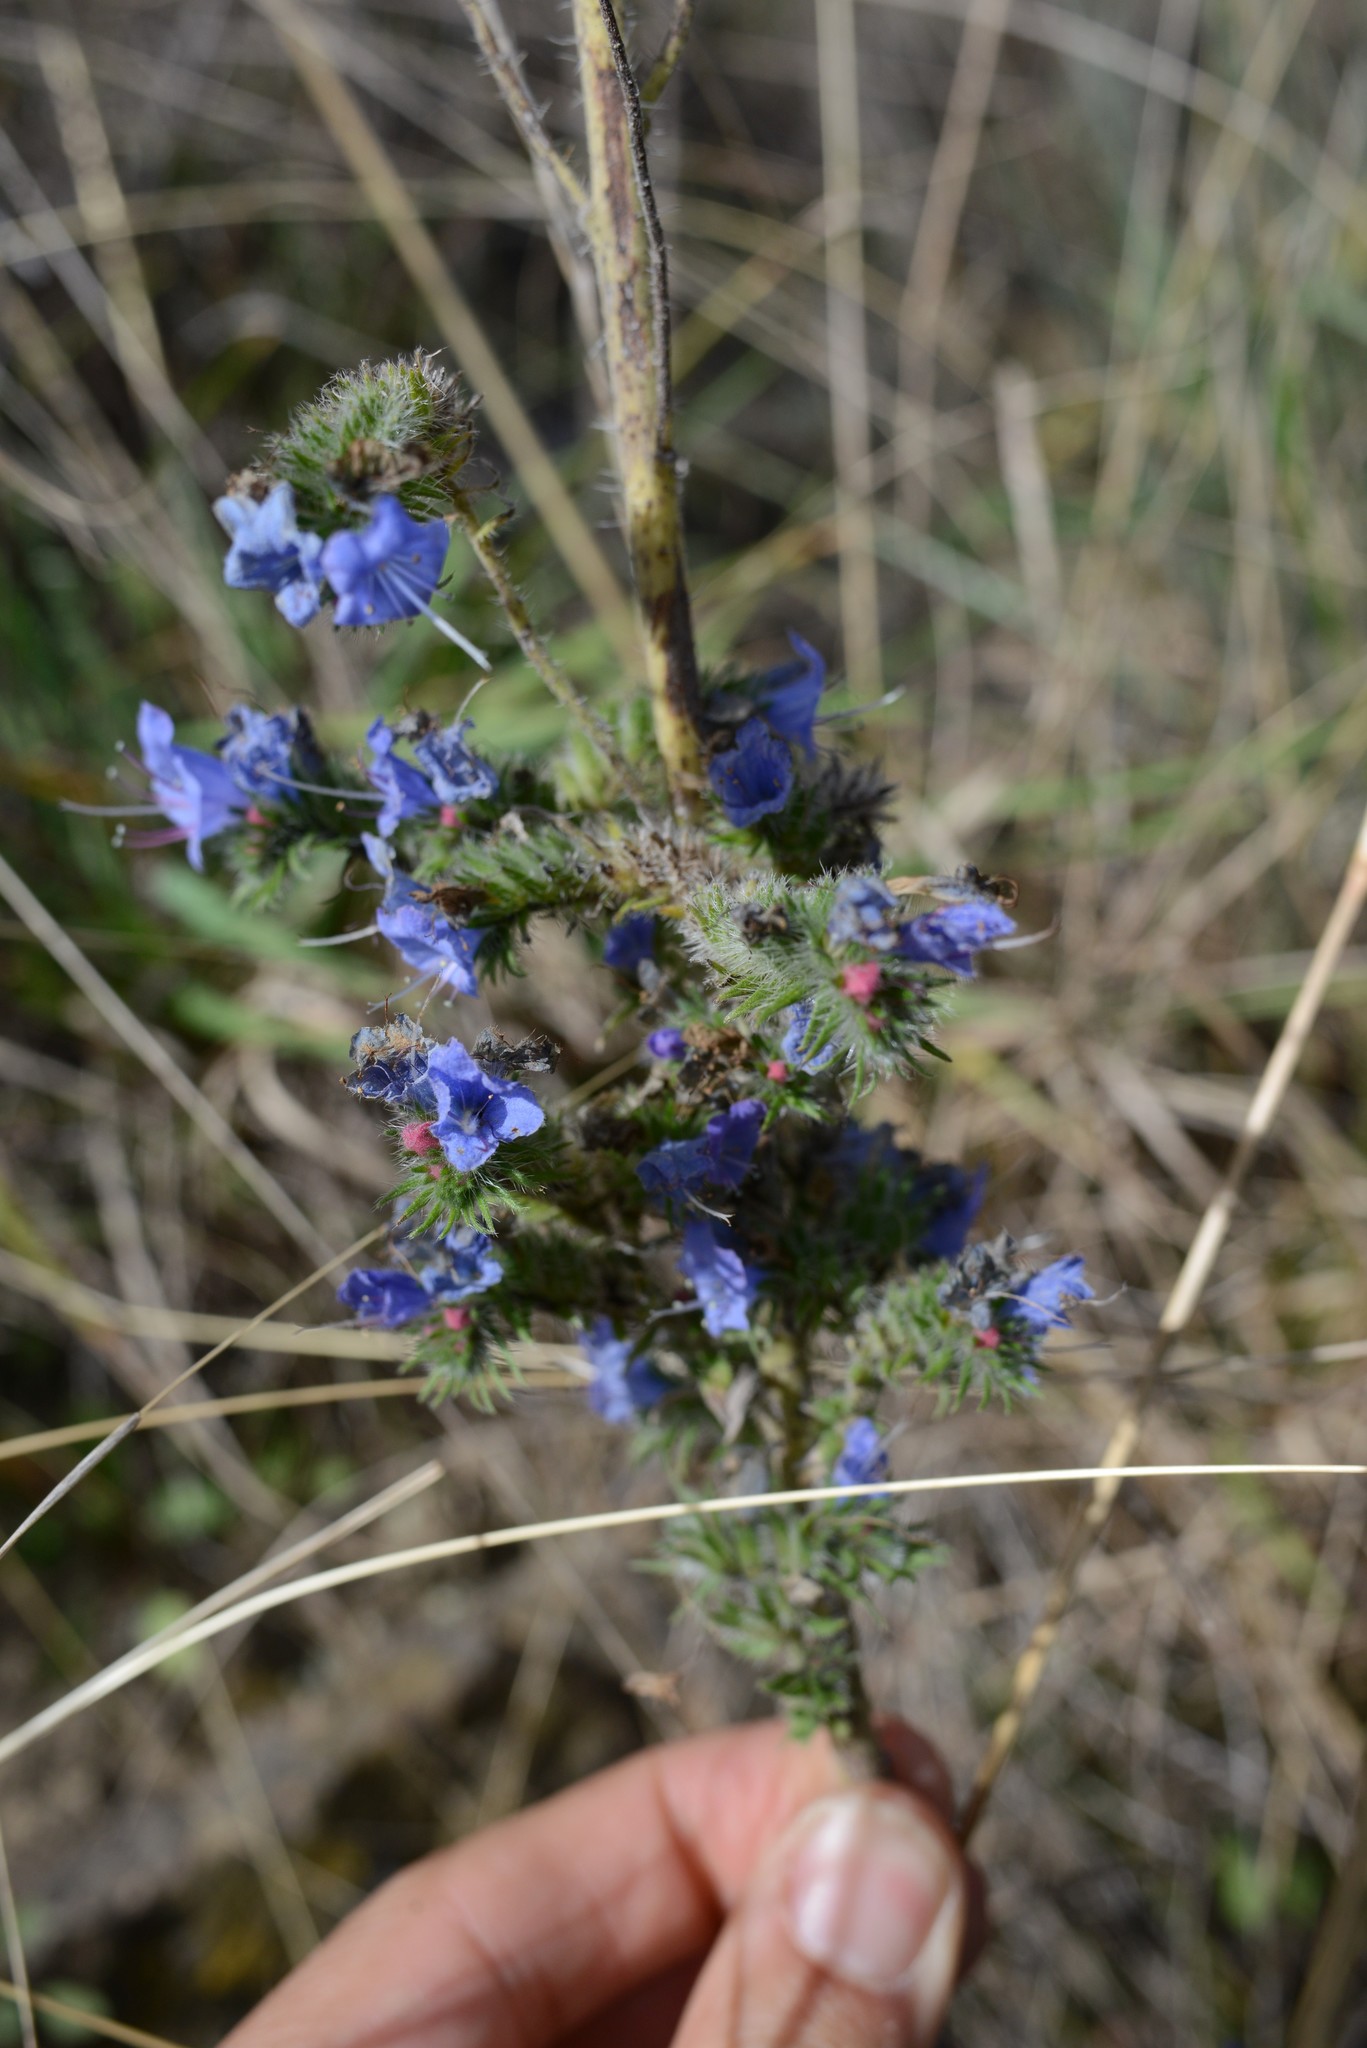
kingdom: Plantae
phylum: Tracheophyta
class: Magnoliopsida
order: Boraginales
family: Boraginaceae
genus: Echium
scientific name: Echium vulgare
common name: Common viper's bugloss
